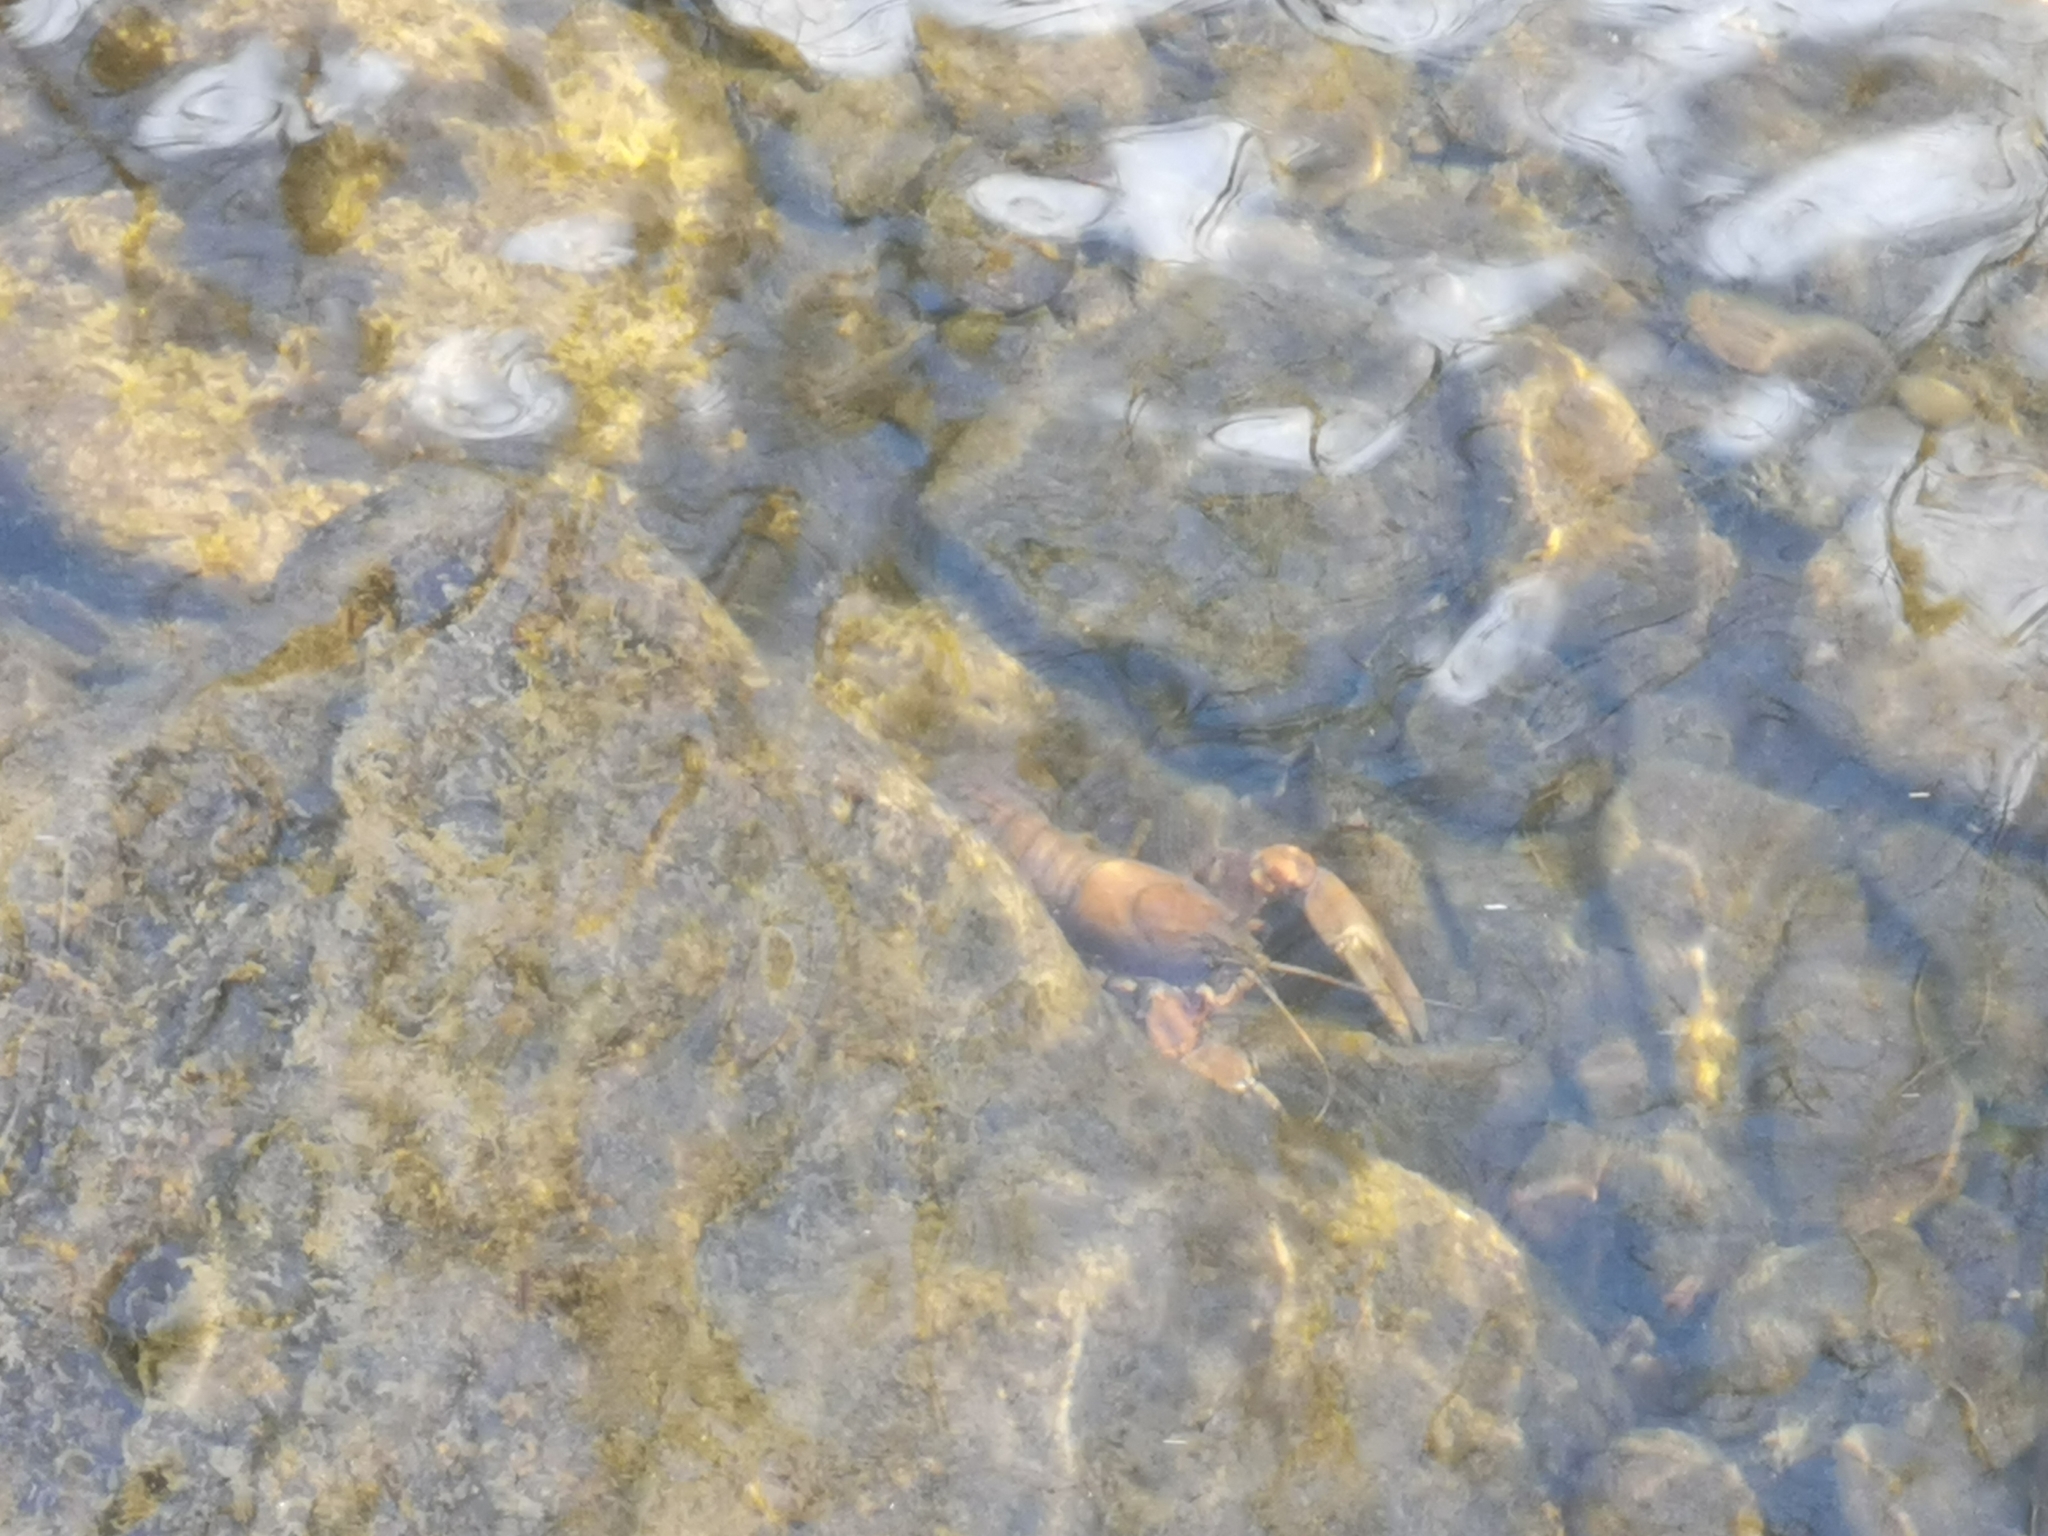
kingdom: Animalia
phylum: Arthropoda
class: Malacostraca
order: Decapoda
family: Astacidae
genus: Pacifastacus
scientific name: Pacifastacus leniusculus
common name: Signal crayfish
